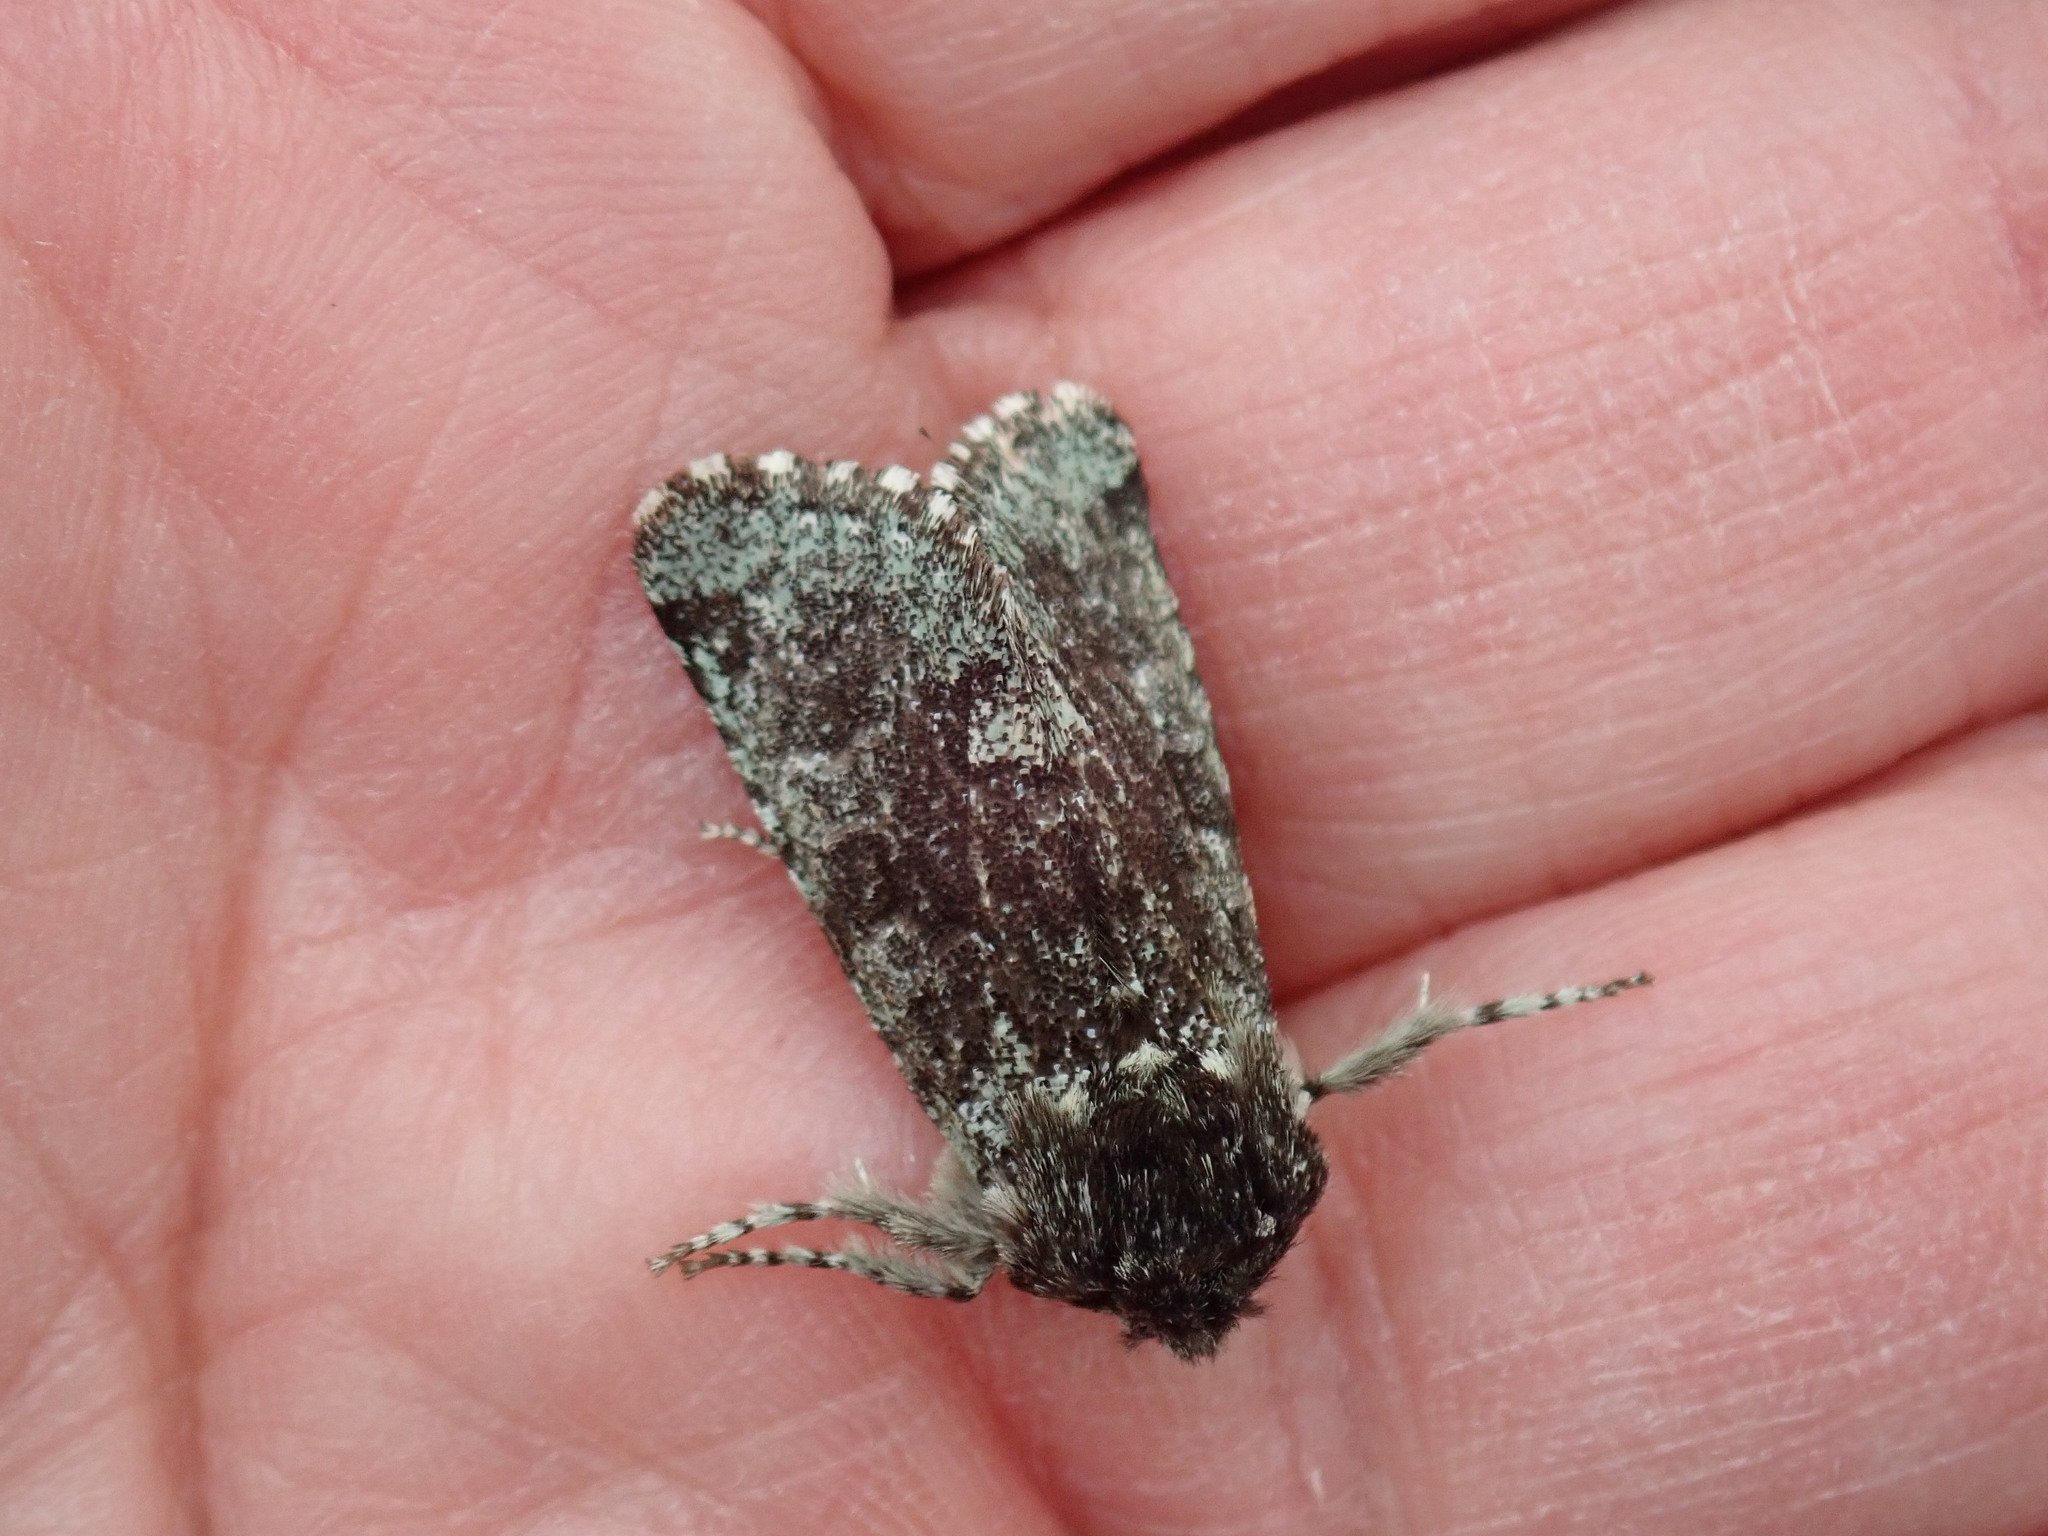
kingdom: Animalia
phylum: Arthropoda
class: Insecta
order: Lepidoptera
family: Noctuidae
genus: Feralia
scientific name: Feralia major
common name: Major sallow
